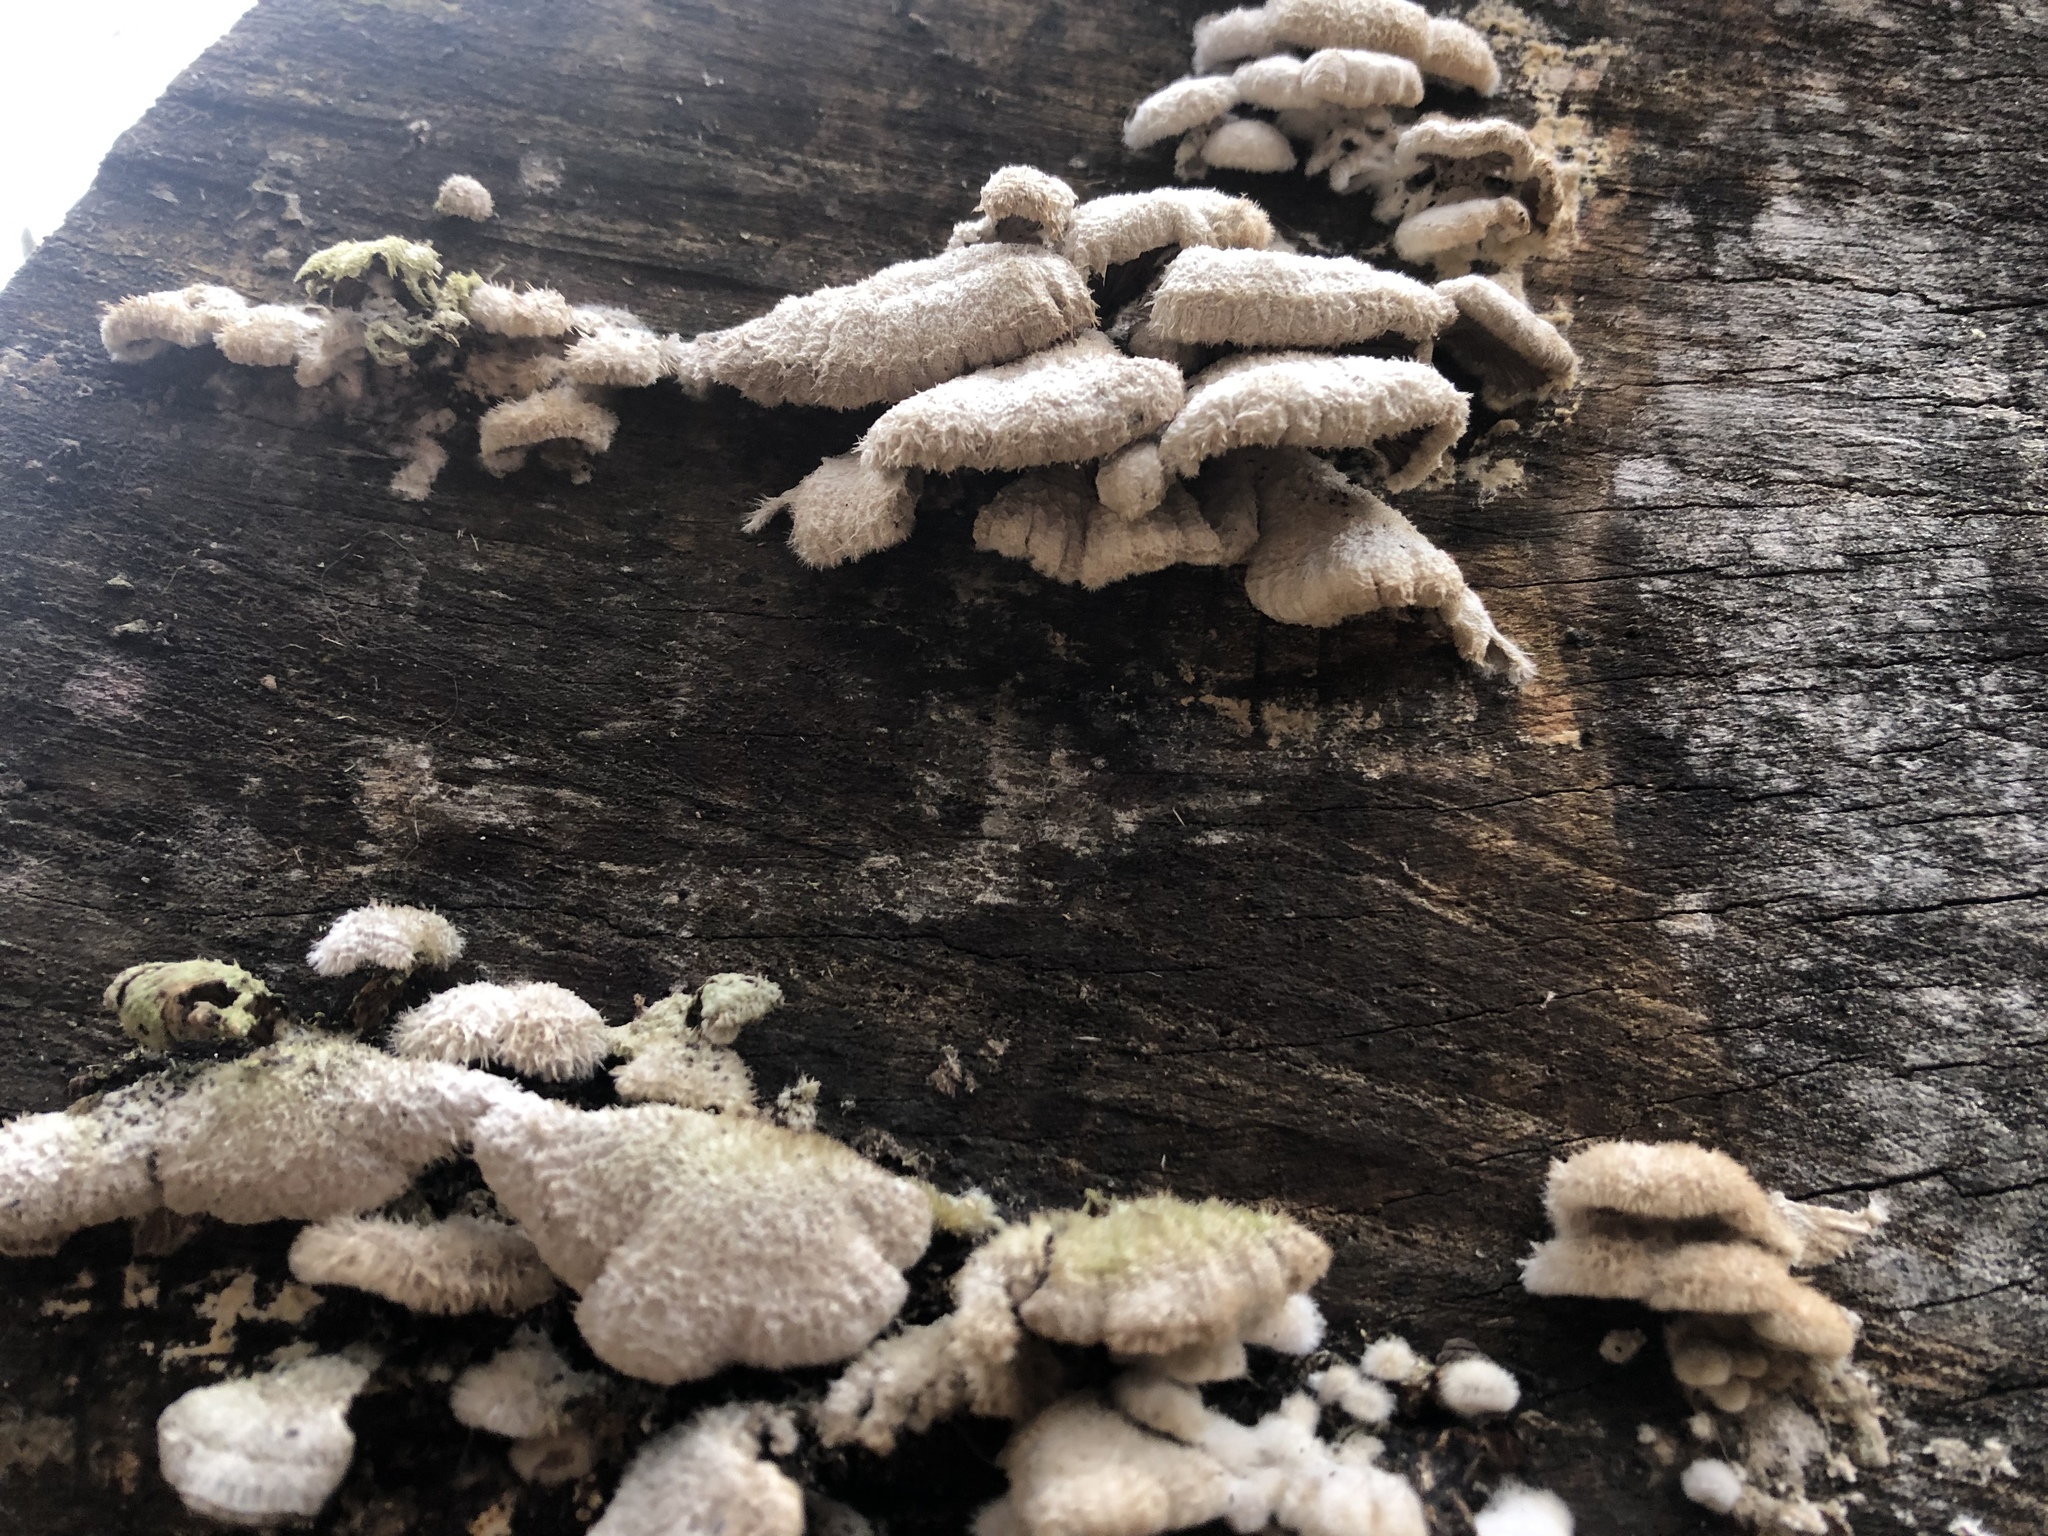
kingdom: Fungi
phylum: Basidiomycota
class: Agaricomycetes
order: Agaricales
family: Schizophyllaceae
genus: Schizophyllum
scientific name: Schizophyllum commune
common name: Common porecrust
